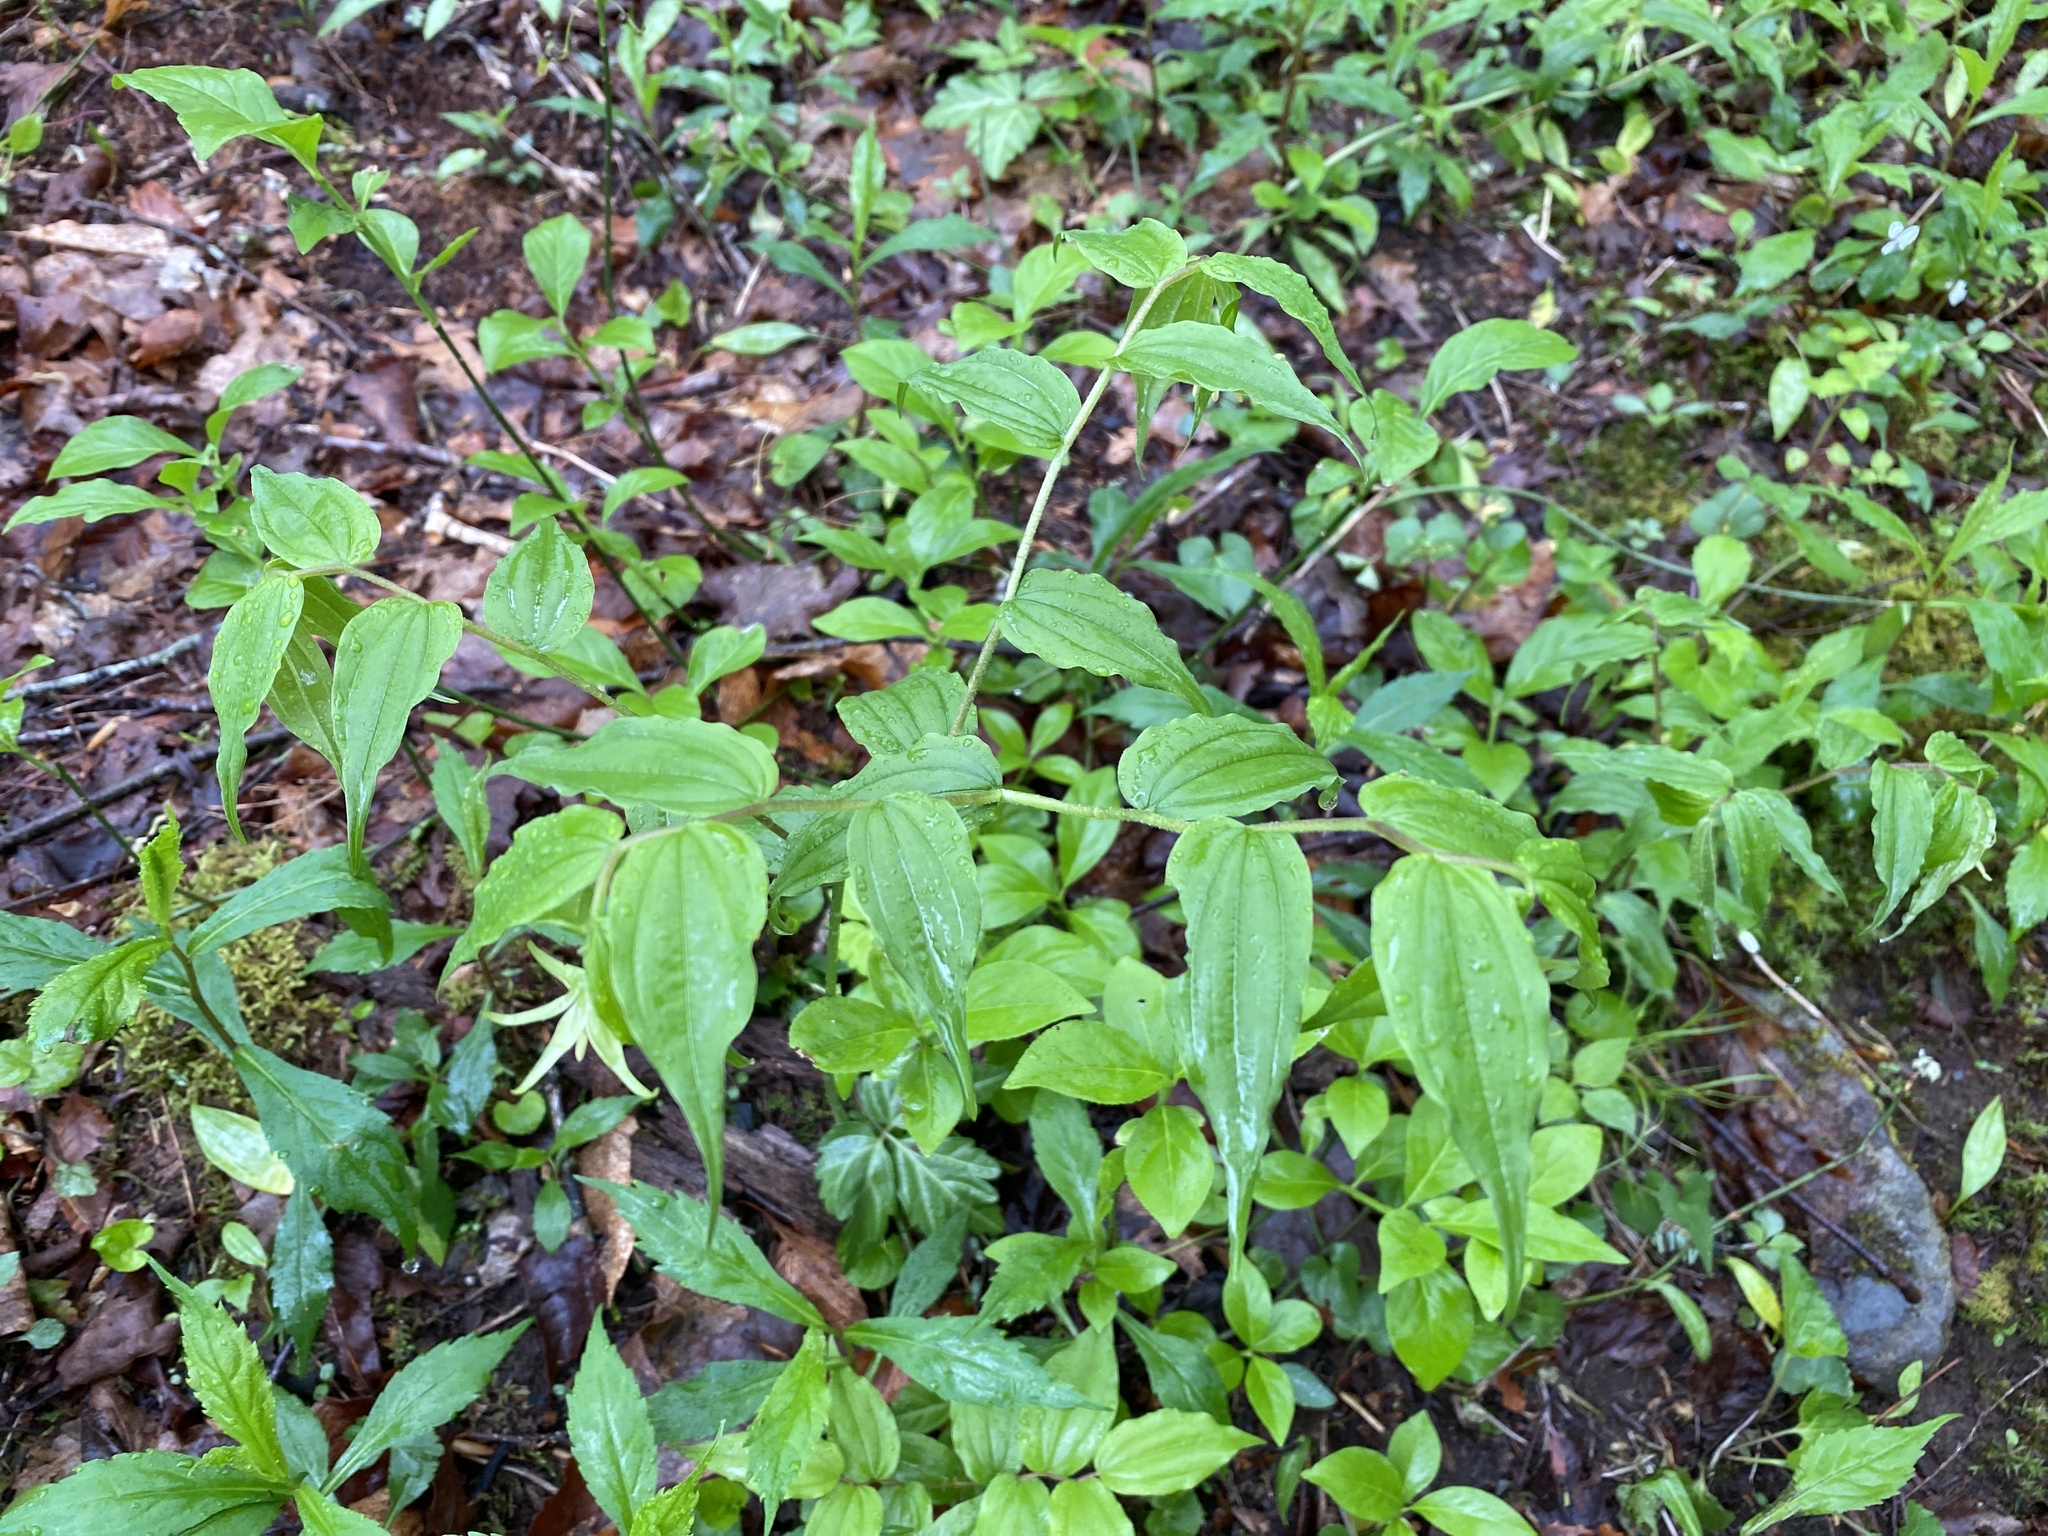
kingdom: Plantae
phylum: Tracheophyta
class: Liliopsida
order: Liliales
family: Liliaceae
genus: Prosartes
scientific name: Prosartes lanuginosa
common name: Hairy mandarin
